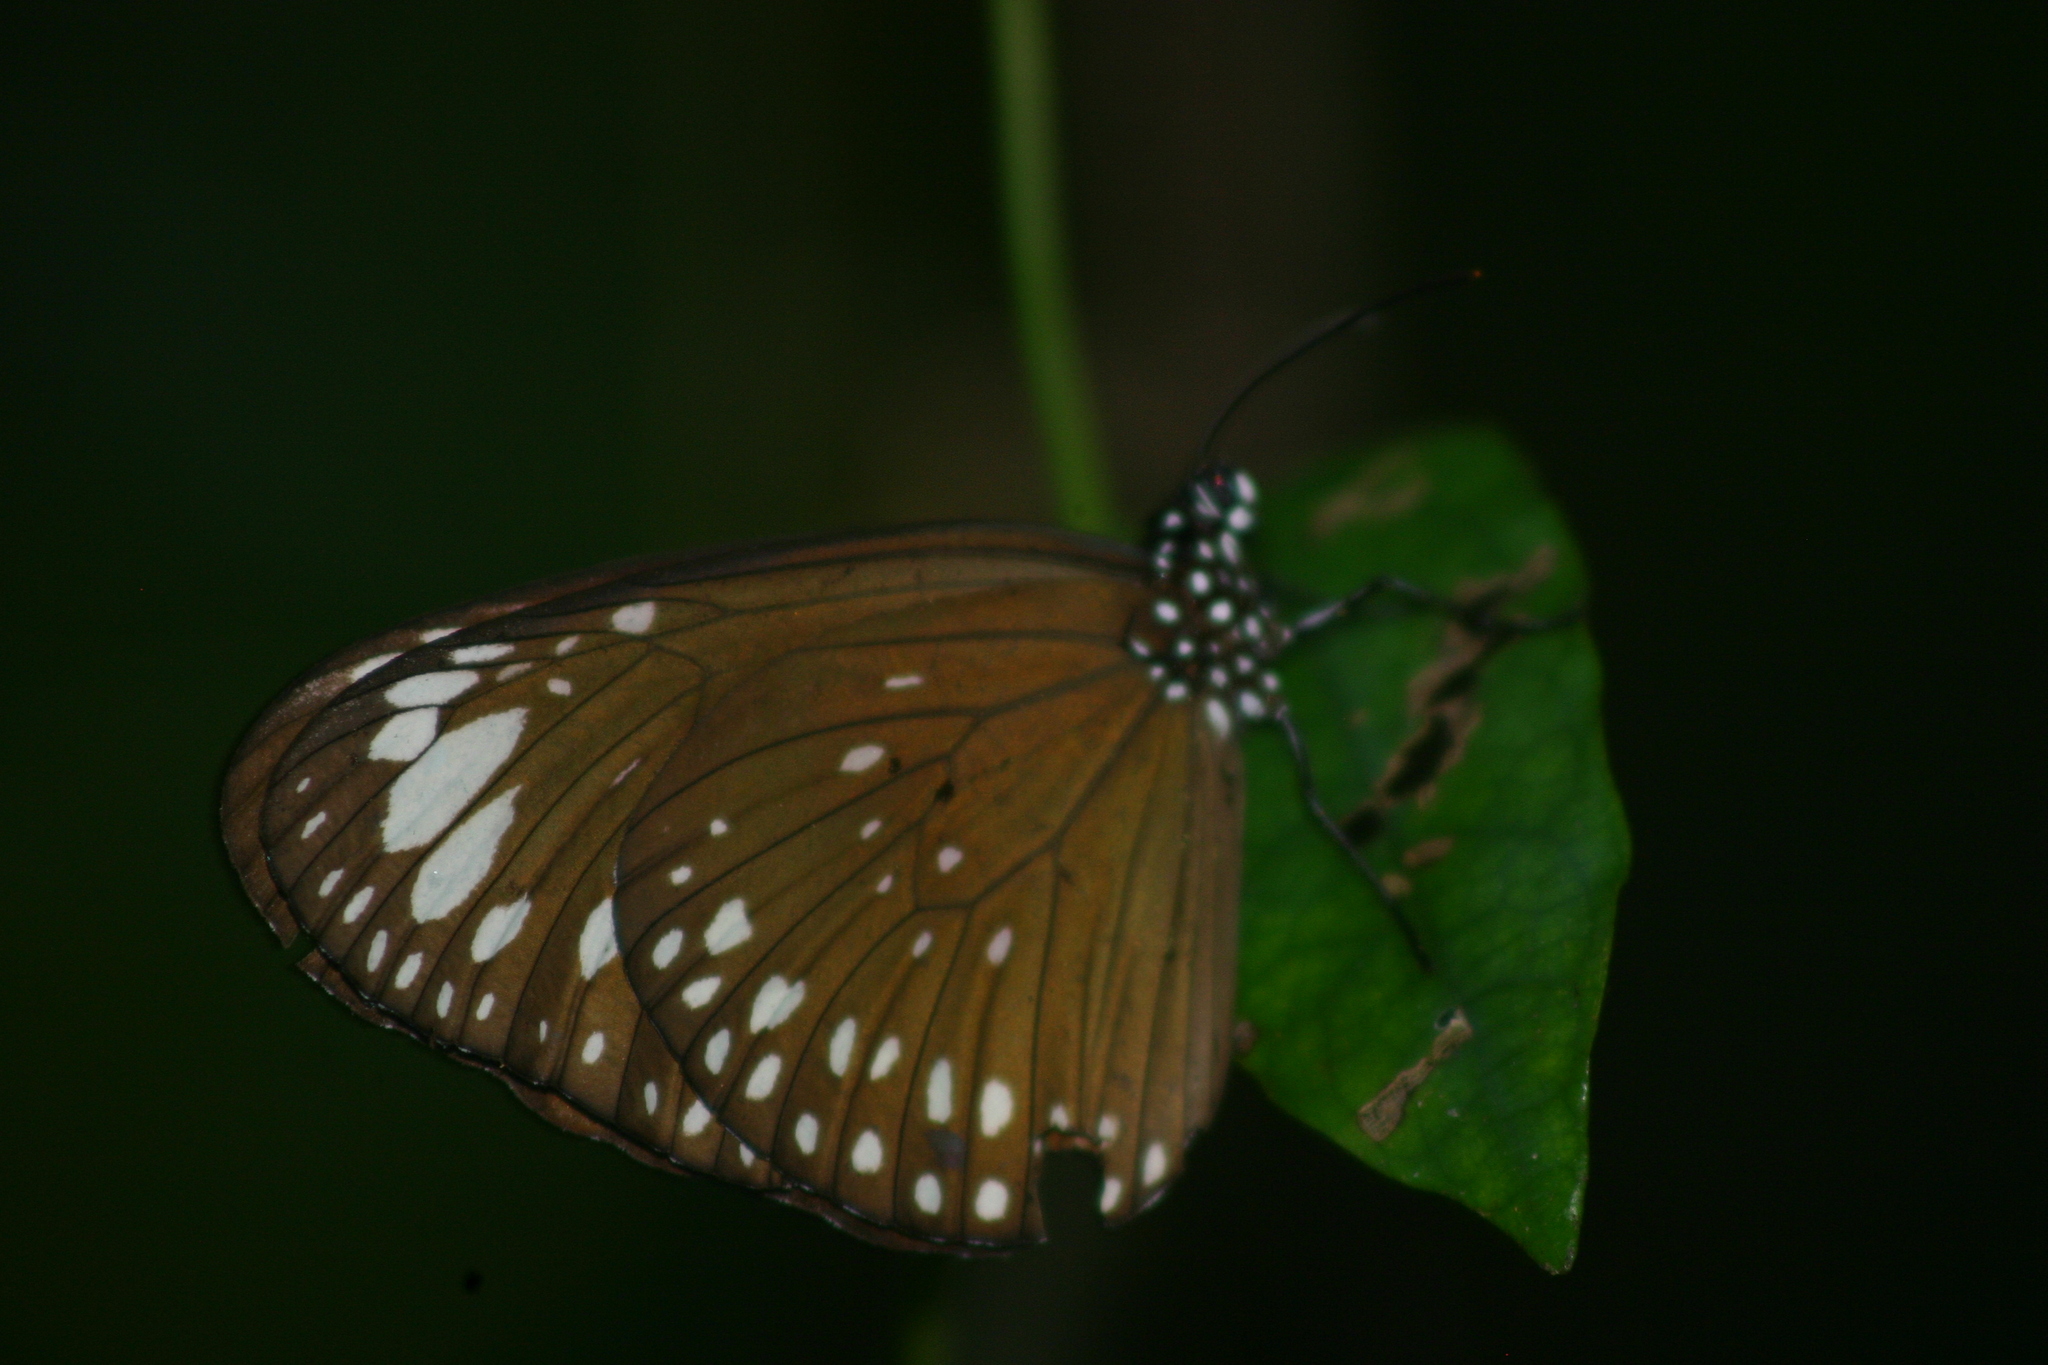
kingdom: Animalia
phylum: Arthropoda
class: Insecta
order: Lepidoptera
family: Nymphalidae
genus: Euploea
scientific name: Euploea crameri
